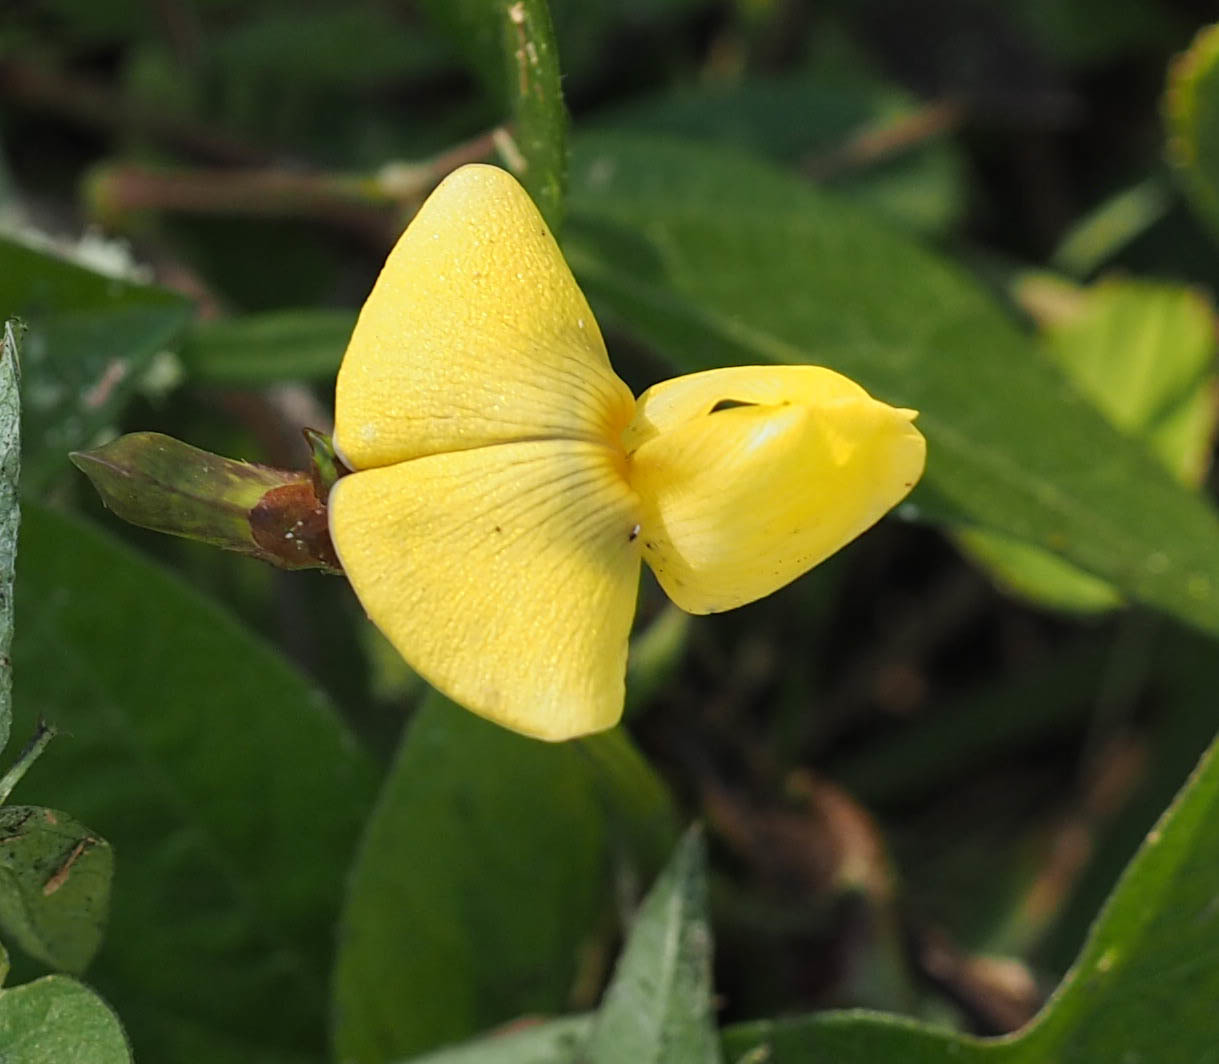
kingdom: Plantae
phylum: Tracheophyta
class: Magnoliopsida
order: Fabales
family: Fabaceae
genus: Vigna
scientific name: Vigna luteola
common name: Hairypod cowpea
